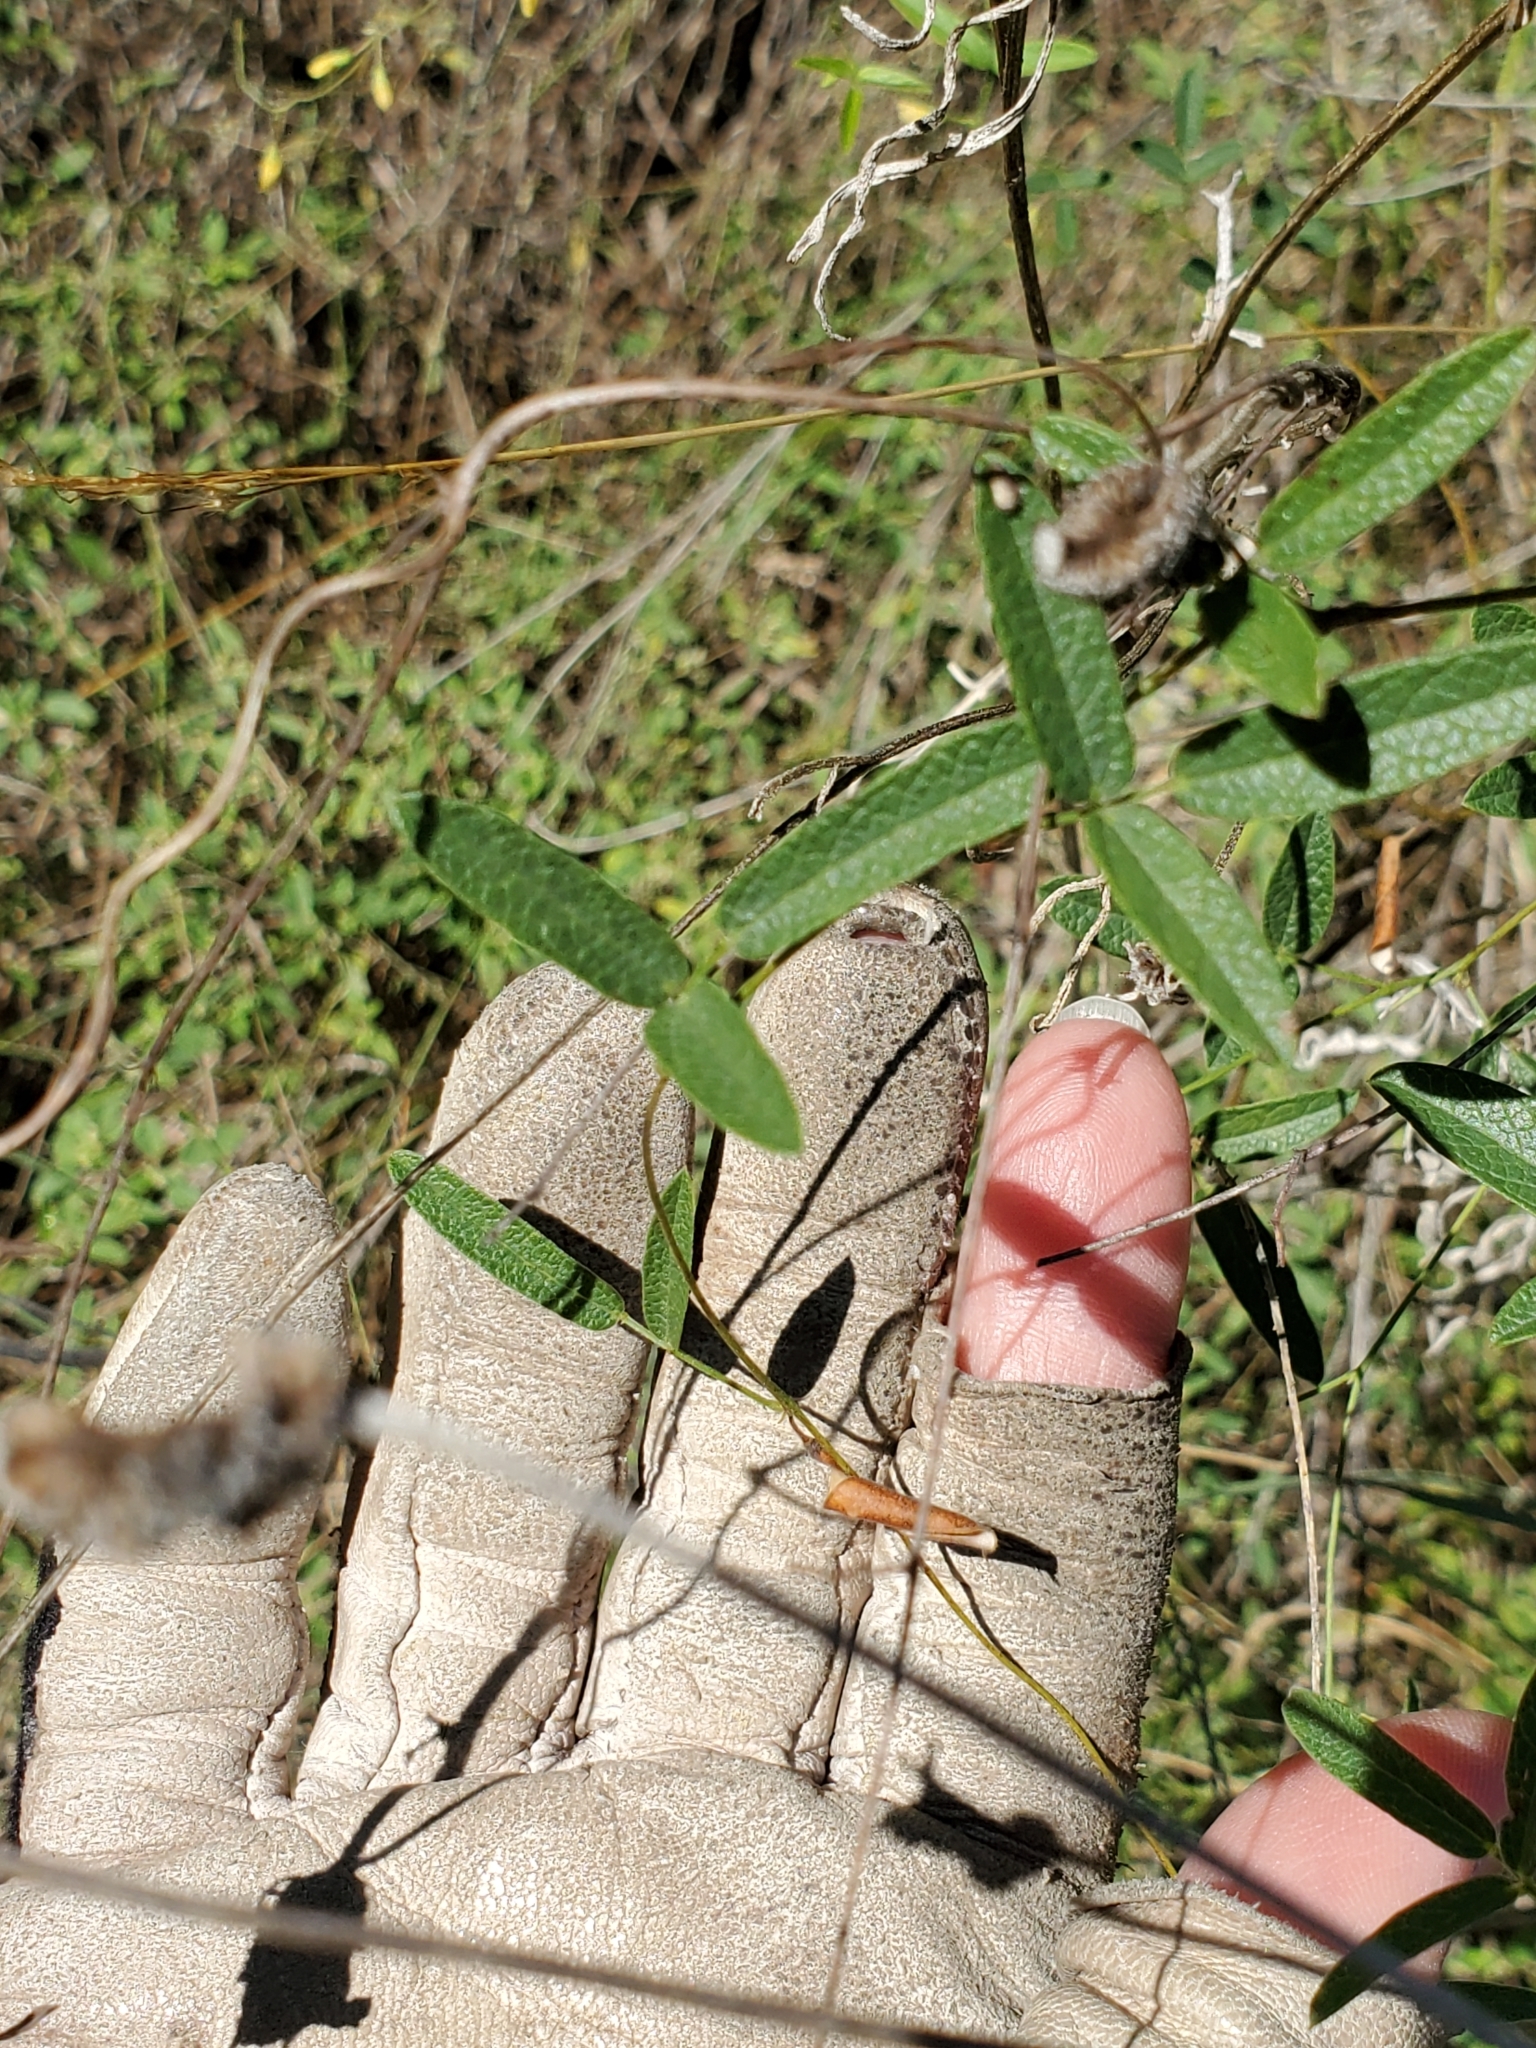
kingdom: Plantae
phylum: Tracheophyta
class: Magnoliopsida
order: Fabales
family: Fabaceae
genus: Rhynchosia
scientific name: Rhynchosia senna
